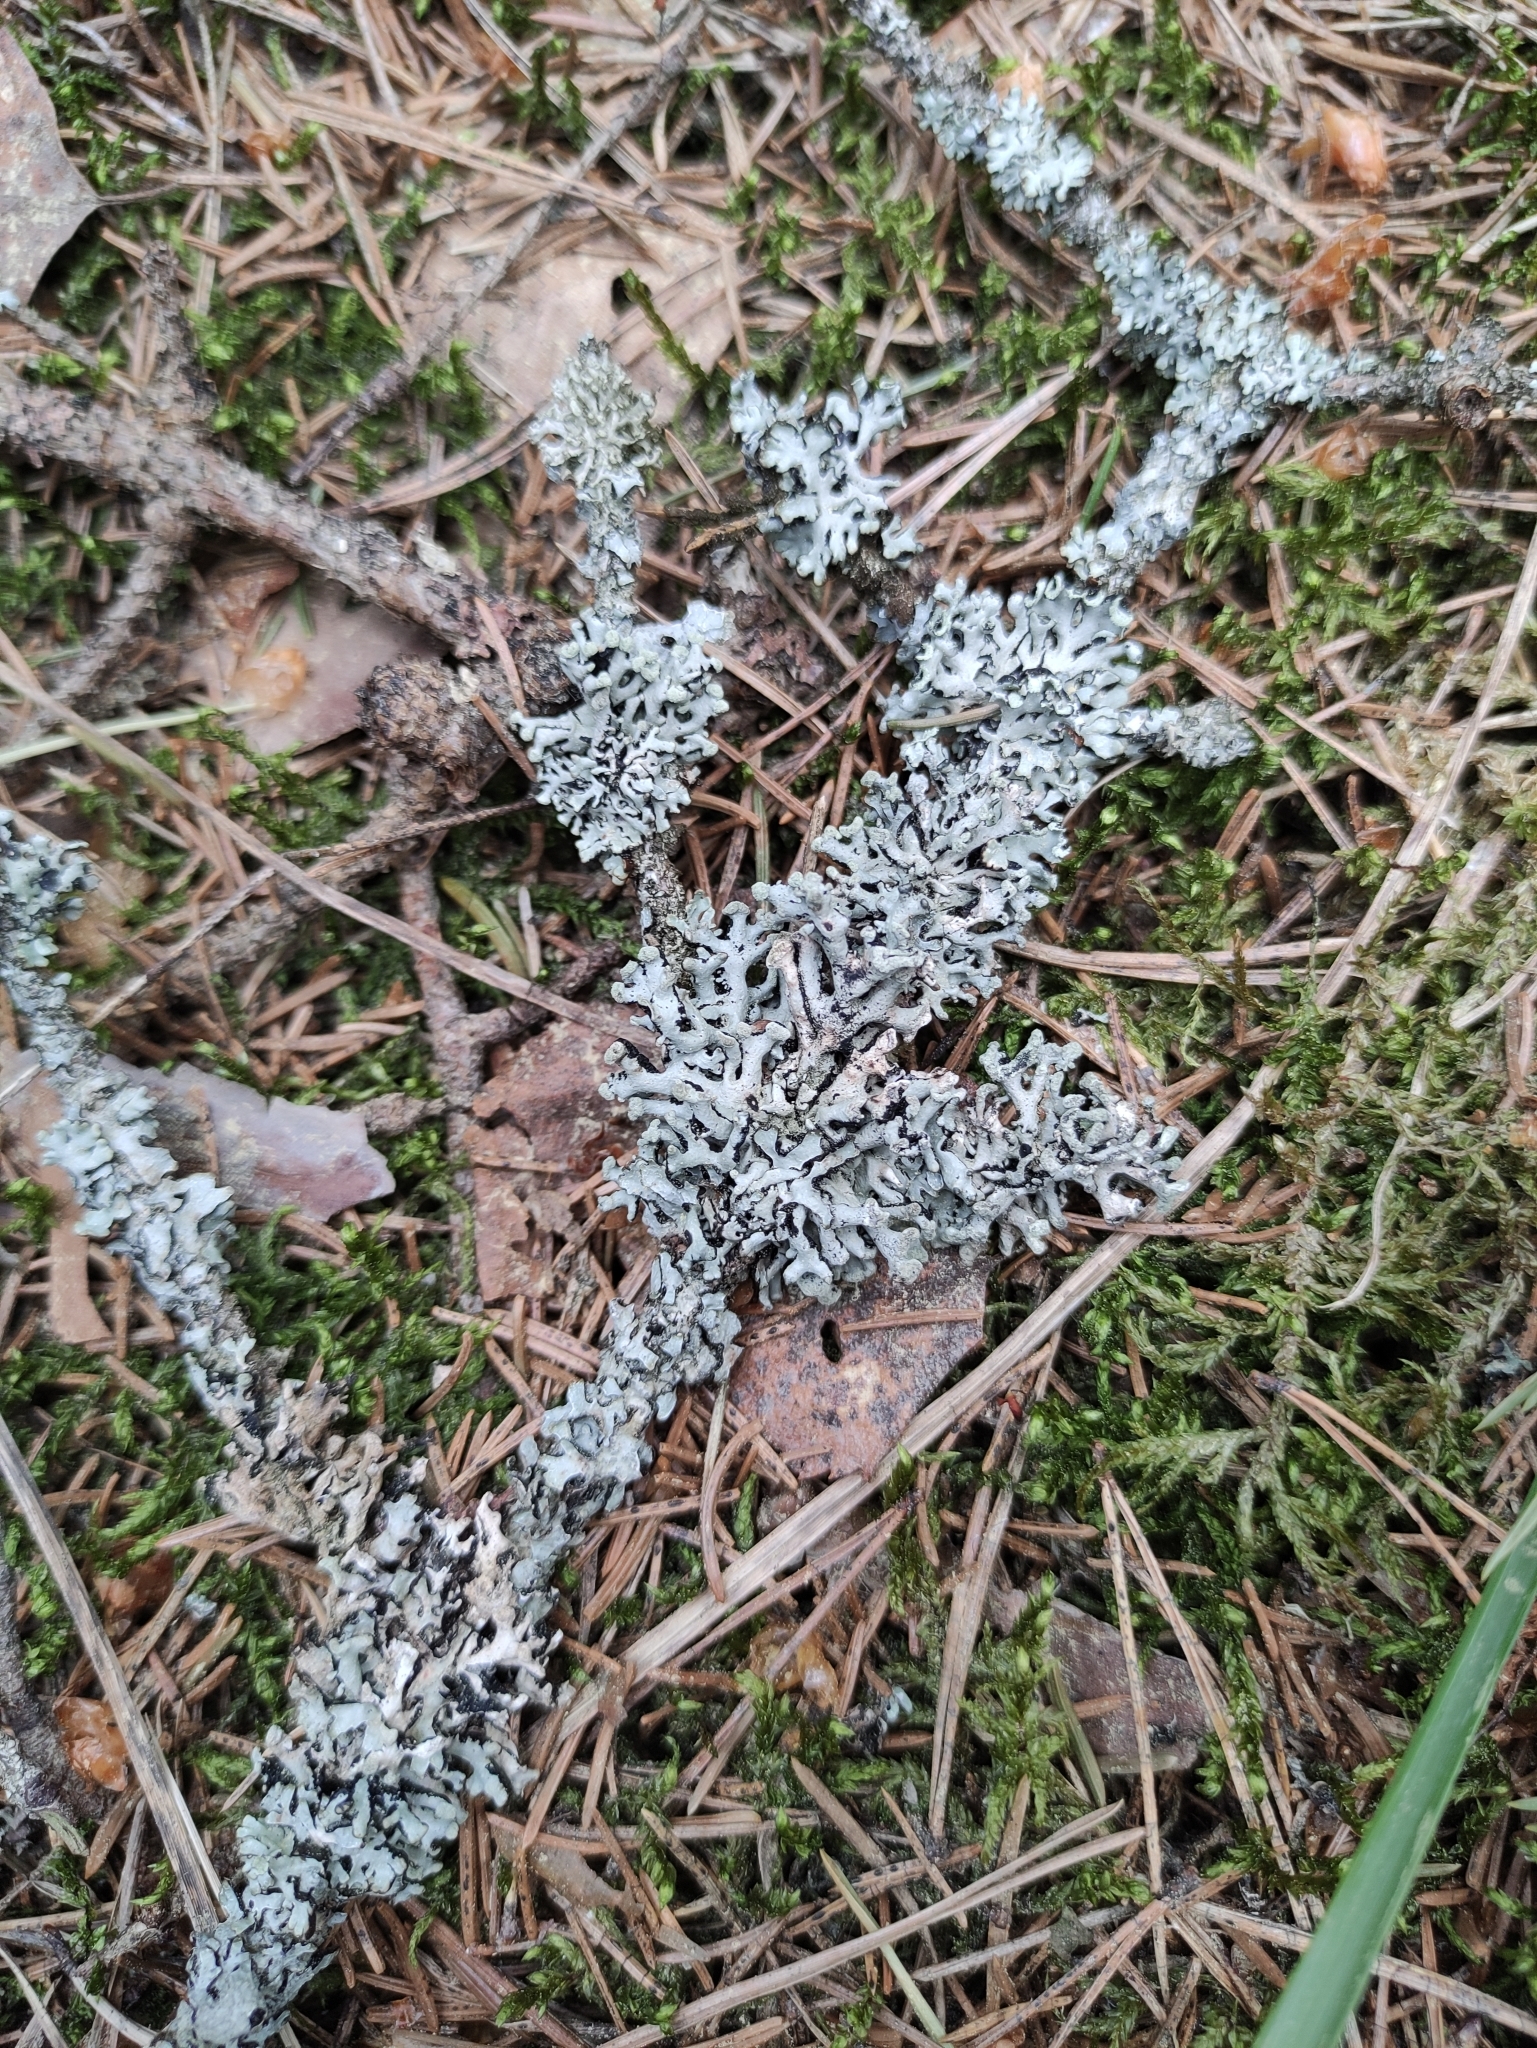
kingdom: Fungi
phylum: Ascomycota
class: Lecanoromycetes
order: Lecanorales
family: Parmeliaceae
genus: Hypogymnia
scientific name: Hypogymnia tubulosa
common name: Powder-headed tube lichen
